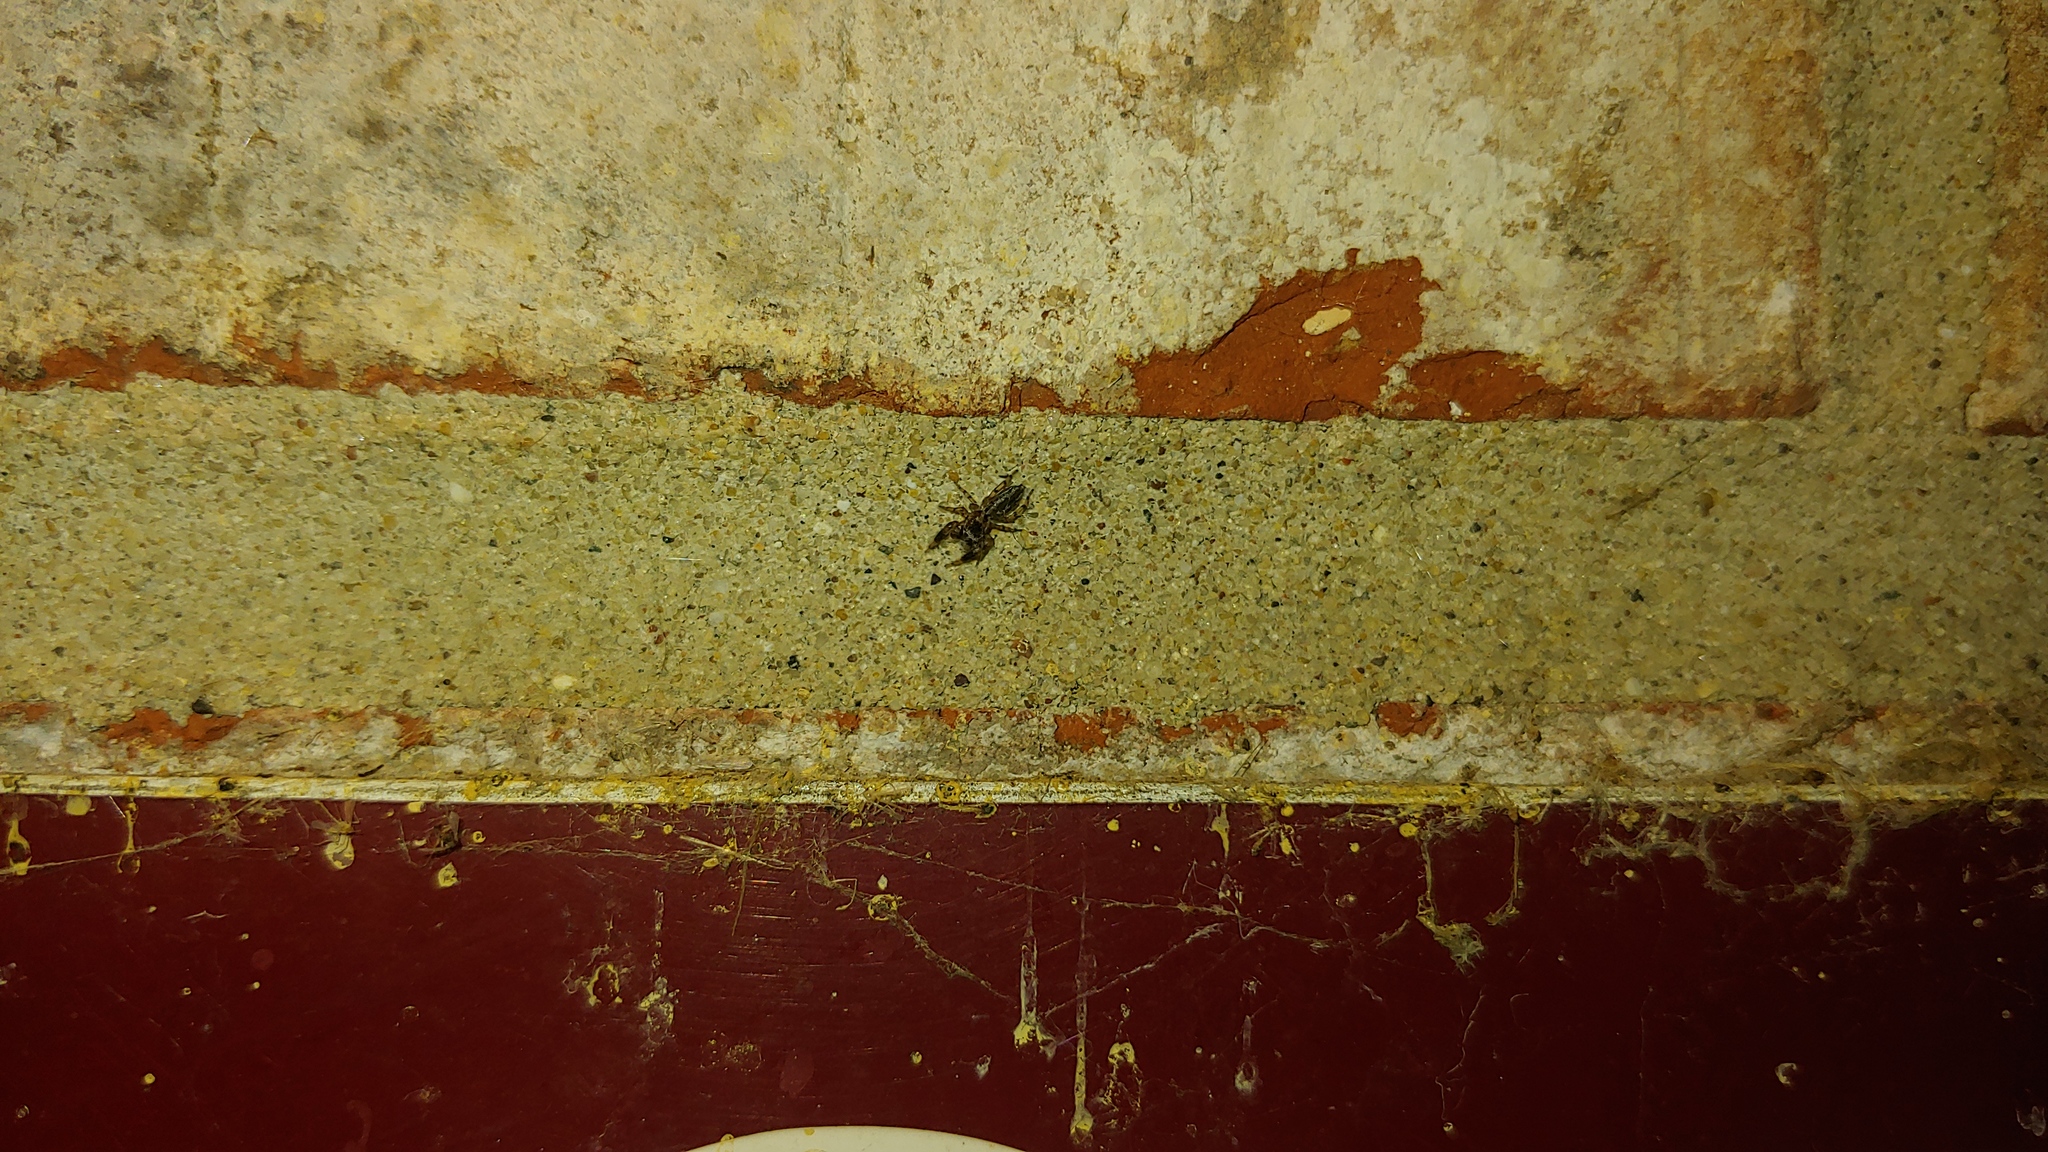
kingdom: Animalia
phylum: Arthropoda
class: Arachnida
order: Araneae
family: Salticidae
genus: Marpissa
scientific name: Marpissa lineata
